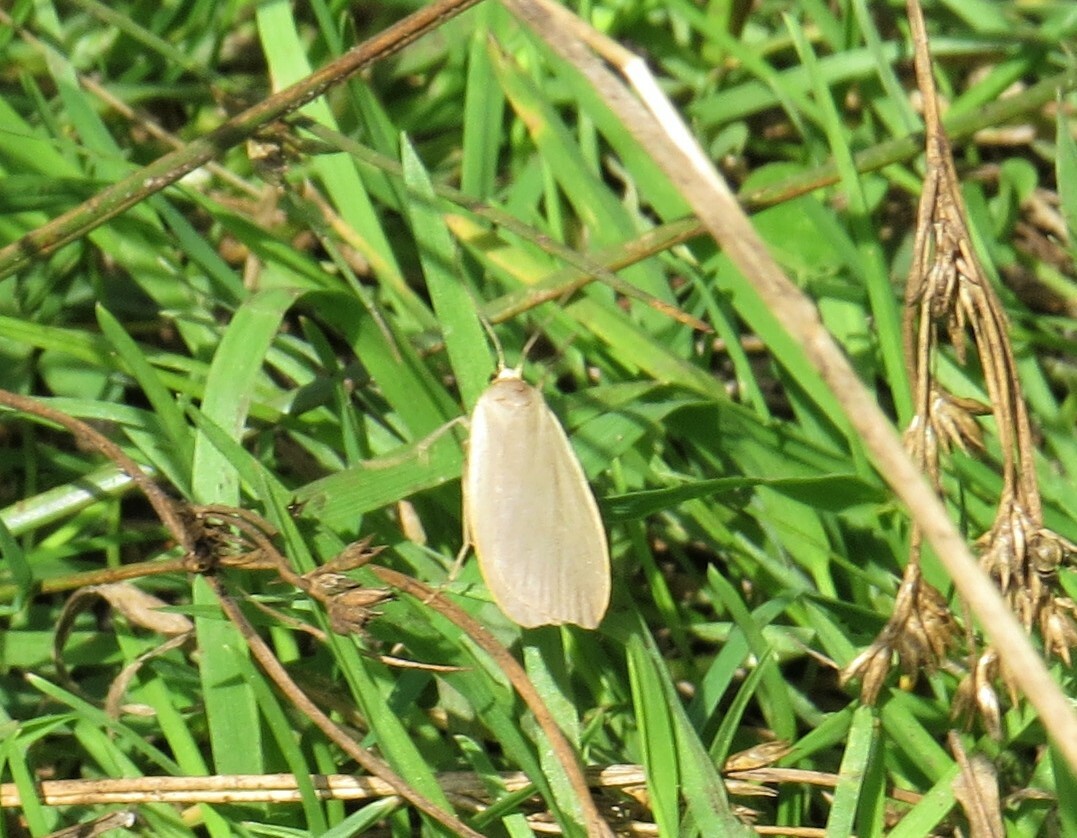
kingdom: Animalia
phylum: Arthropoda
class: Insecta
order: Lepidoptera
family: Erebidae
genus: Collita
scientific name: Collita griseola
